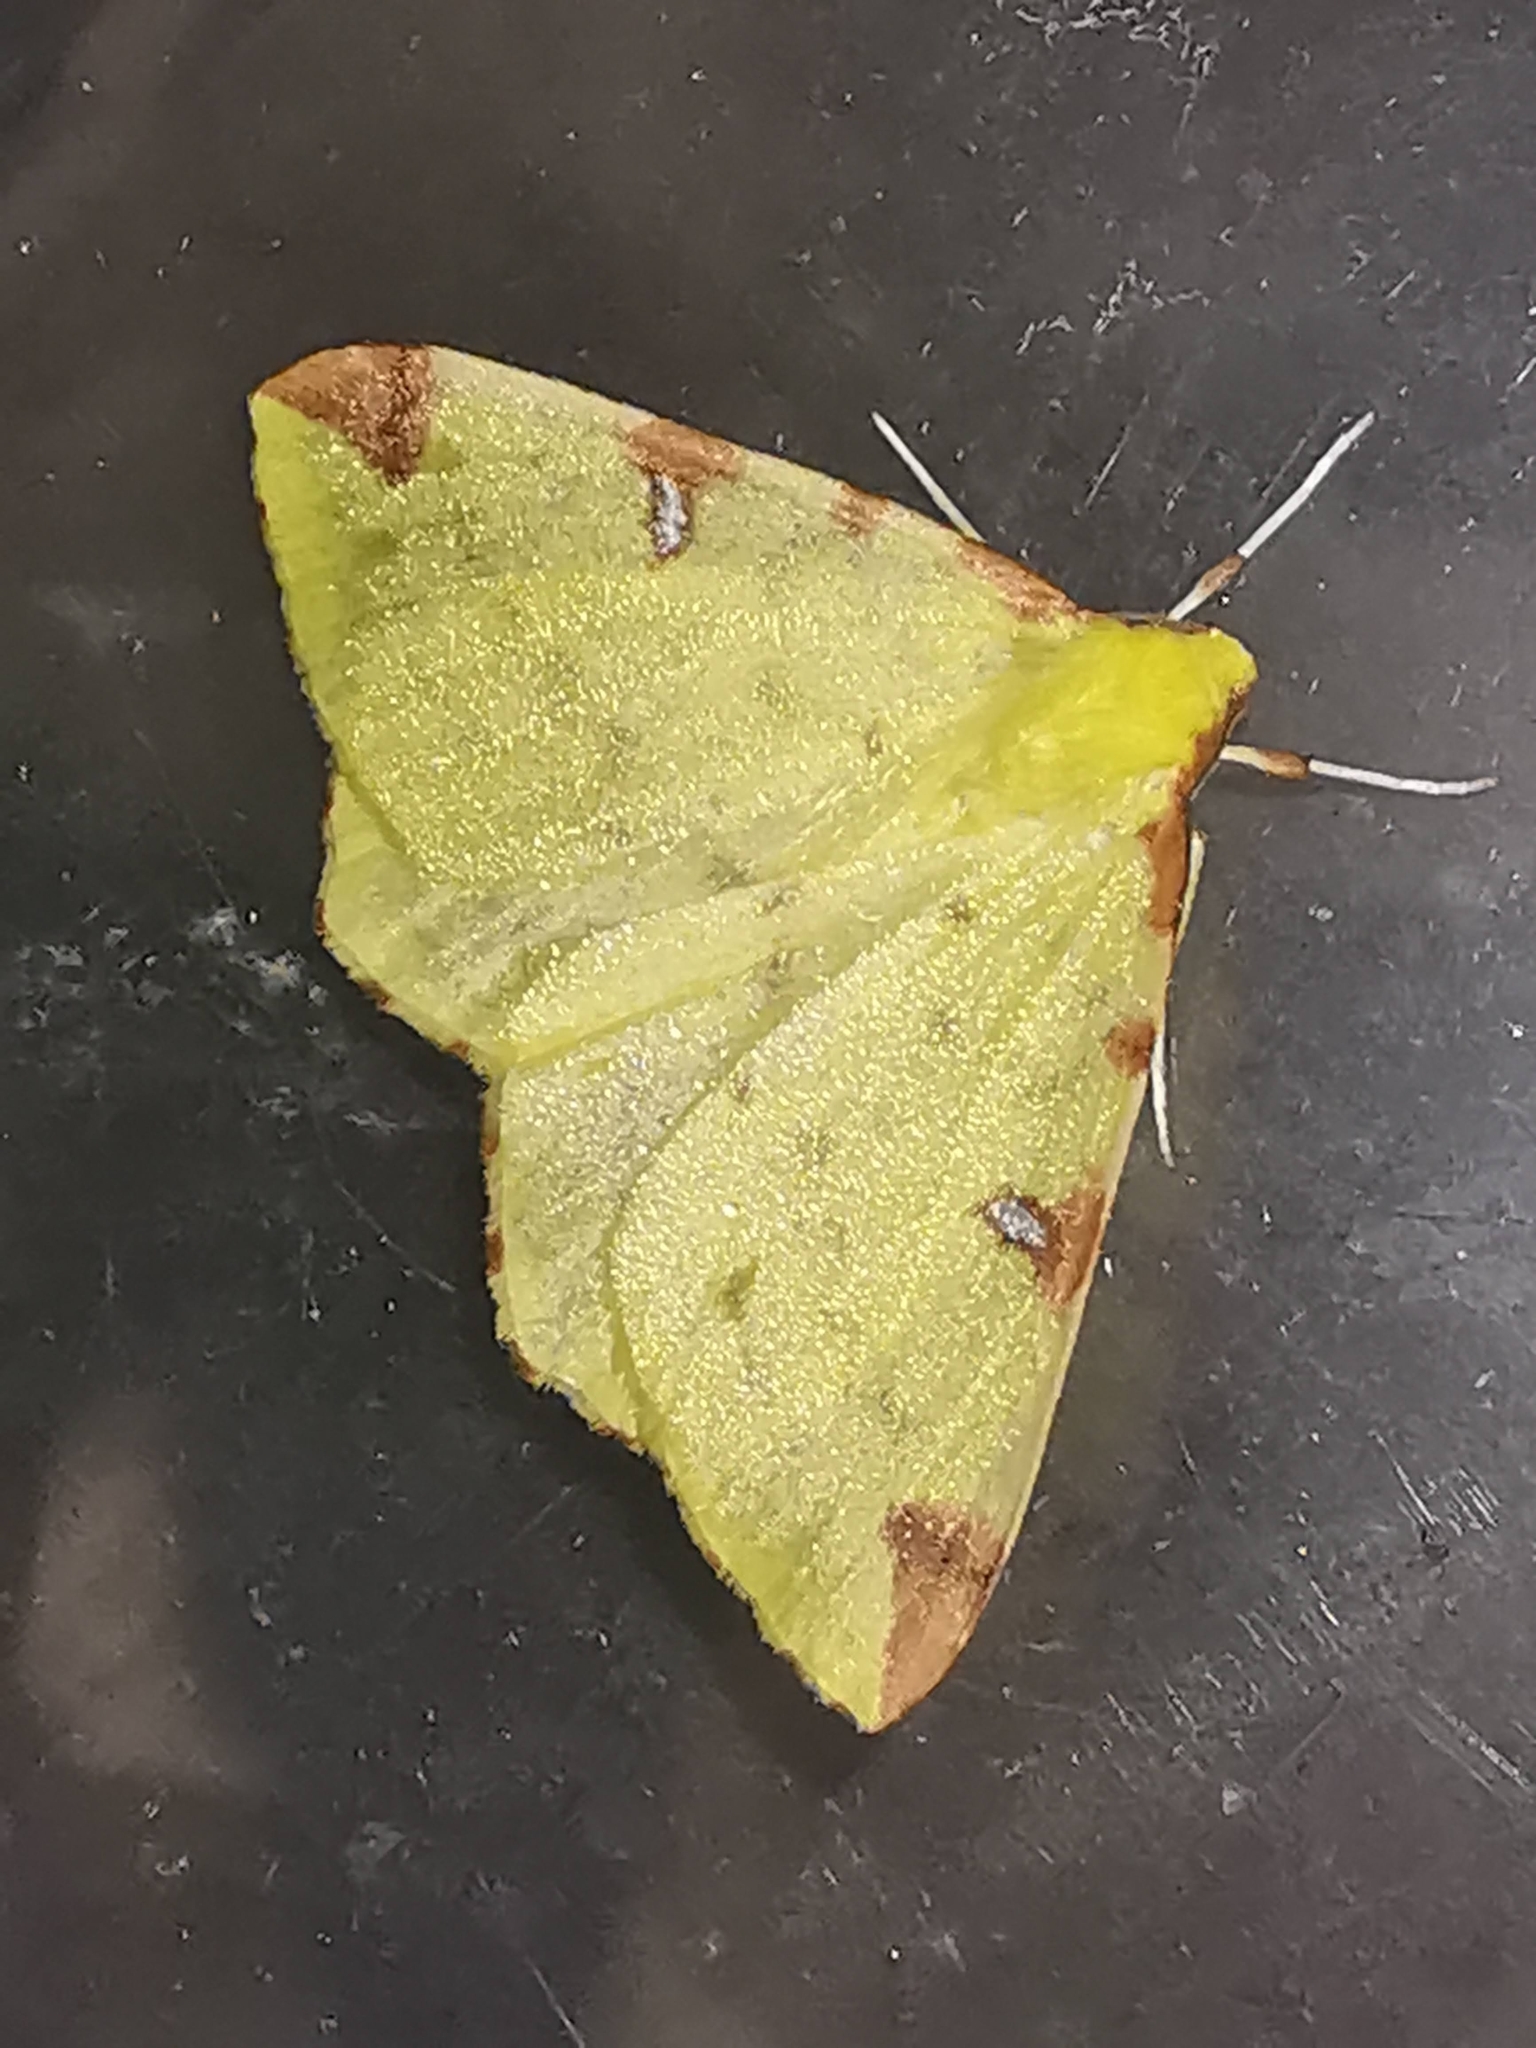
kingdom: Animalia
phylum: Arthropoda
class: Insecta
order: Lepidoptera
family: Geometridae
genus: Opisthograptis
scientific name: Opisthograptis luteolata
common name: Brimstone moth
